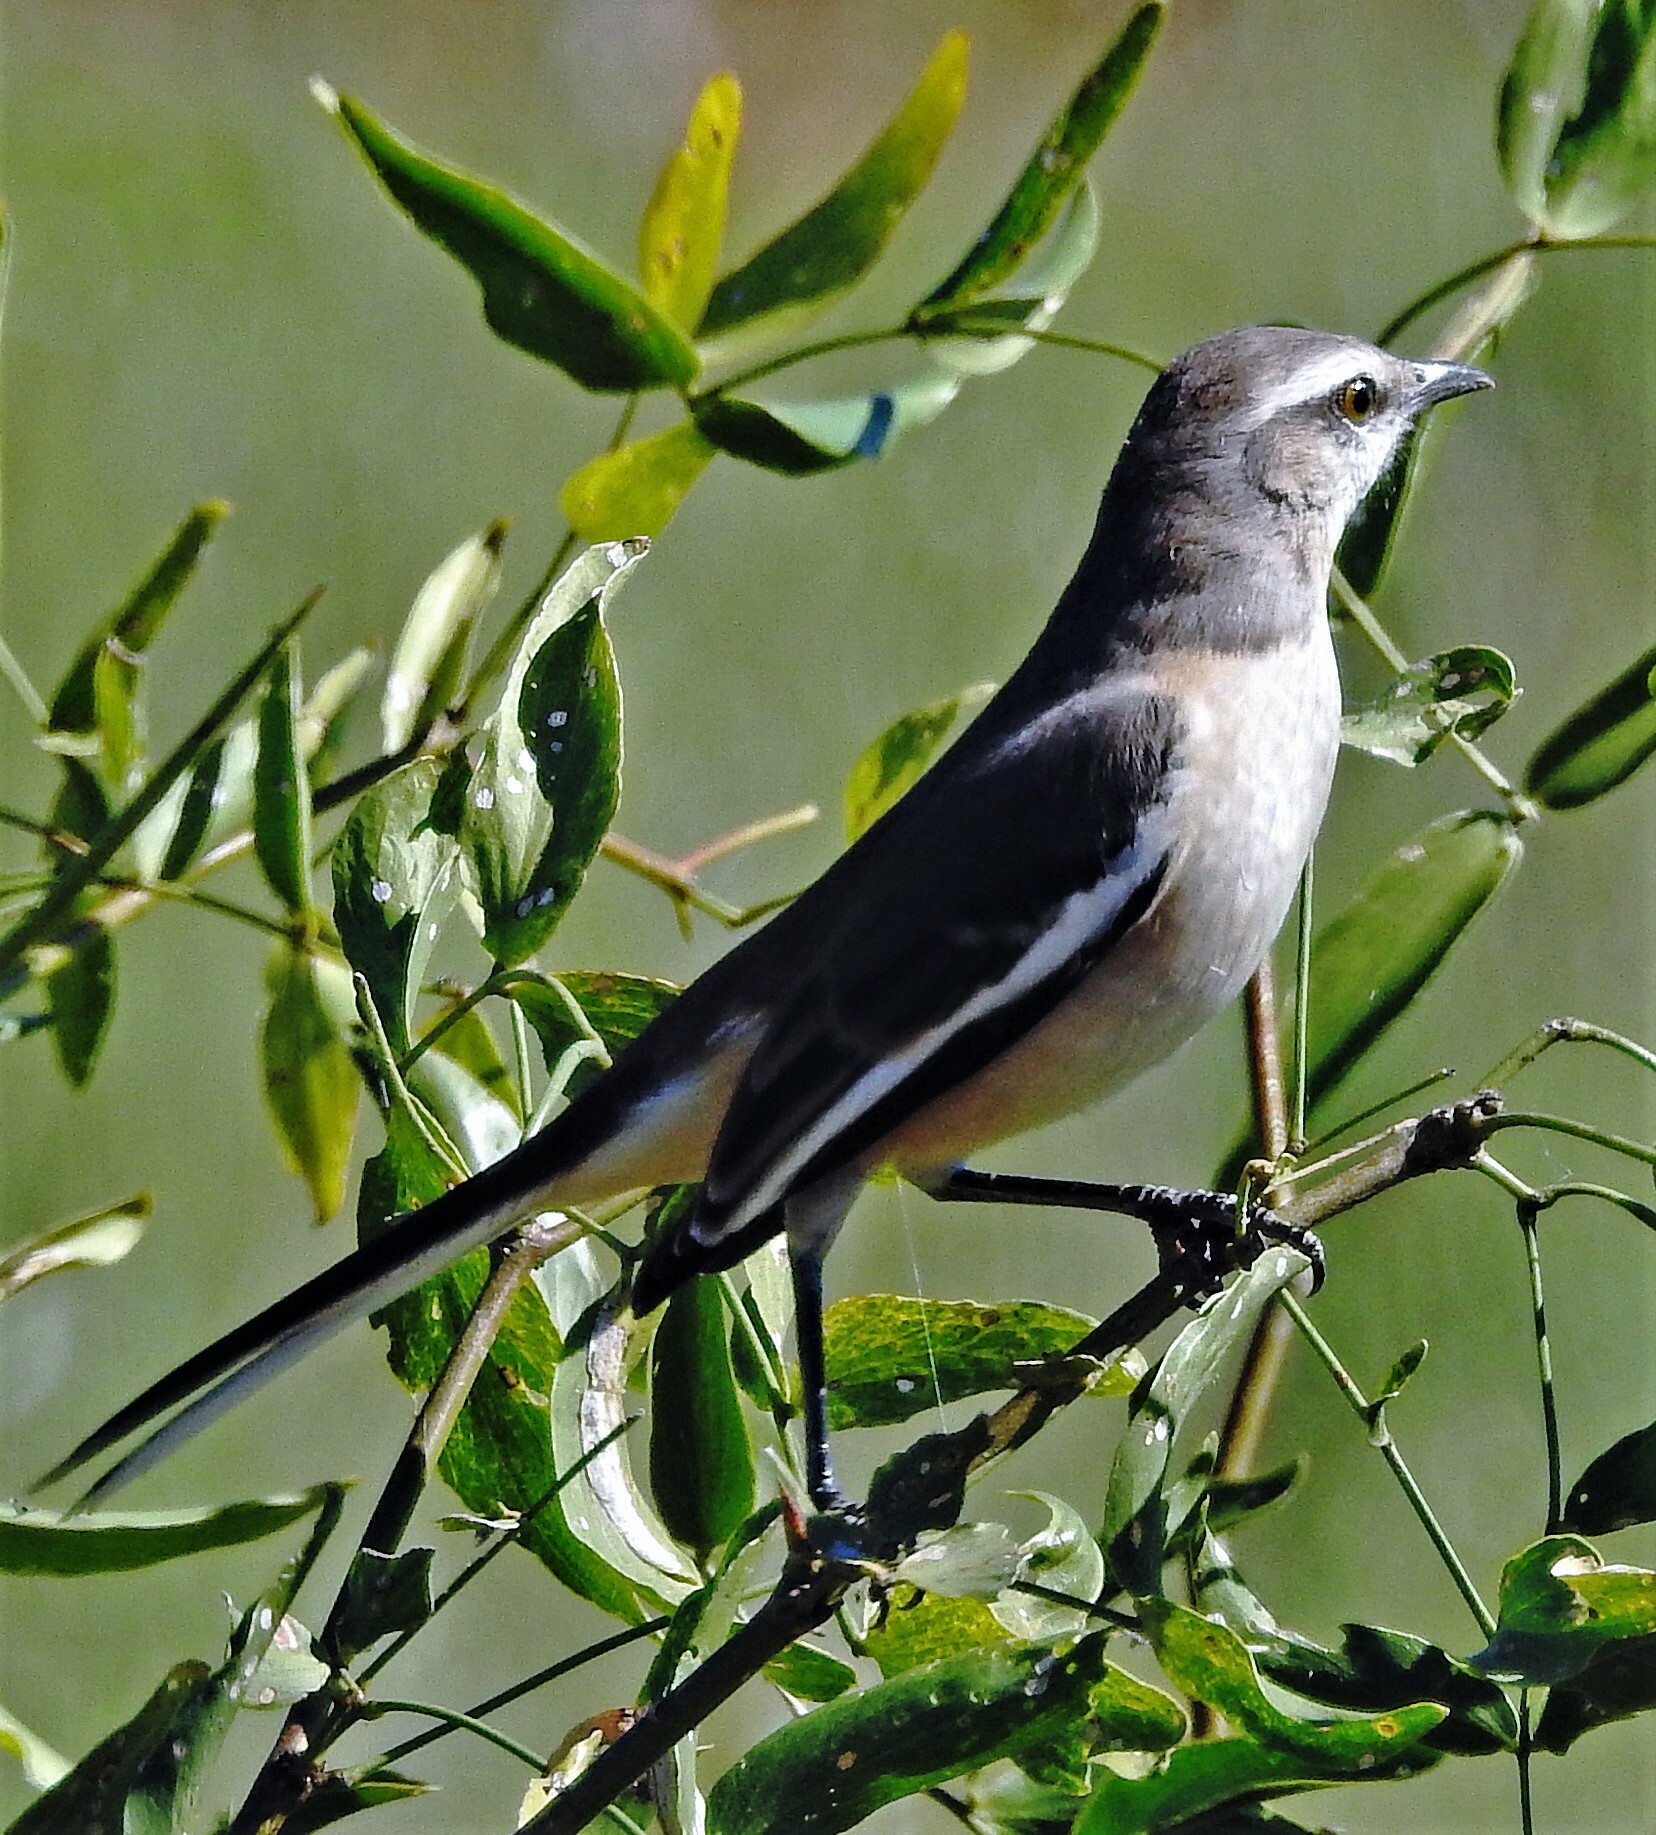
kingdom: Animalia
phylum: Chordata
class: Aves
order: Passeriformes
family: Mimidae
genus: Mimus
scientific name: Mimus triurus
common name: White-banded mockingbird
